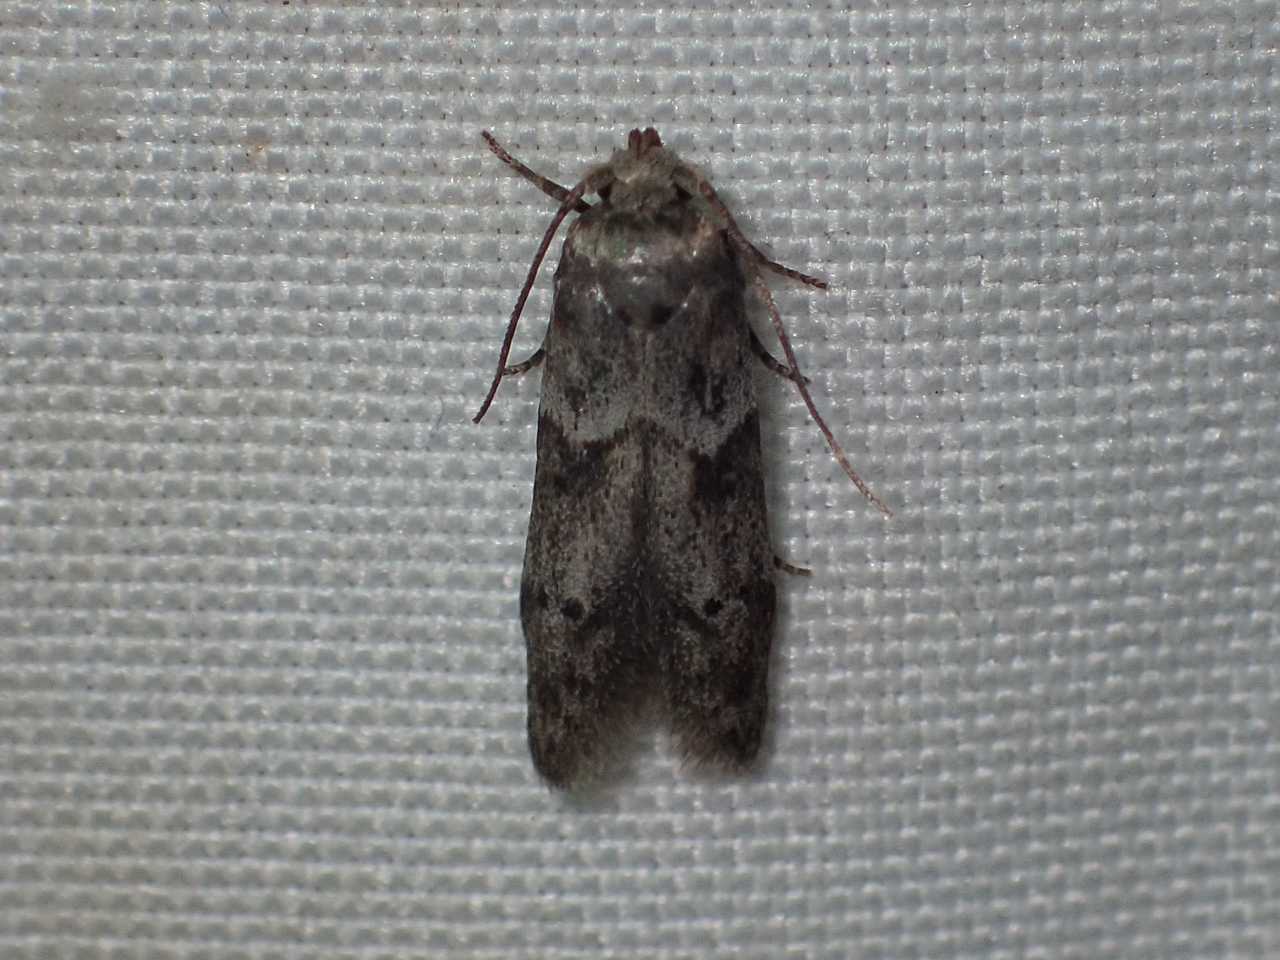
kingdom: Animalia
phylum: Arthropoda
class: Insecta
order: Lepidoptera
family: Blastobasidae
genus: Blastobasis
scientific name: Blastobasis glandulella
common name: Acorn moth
